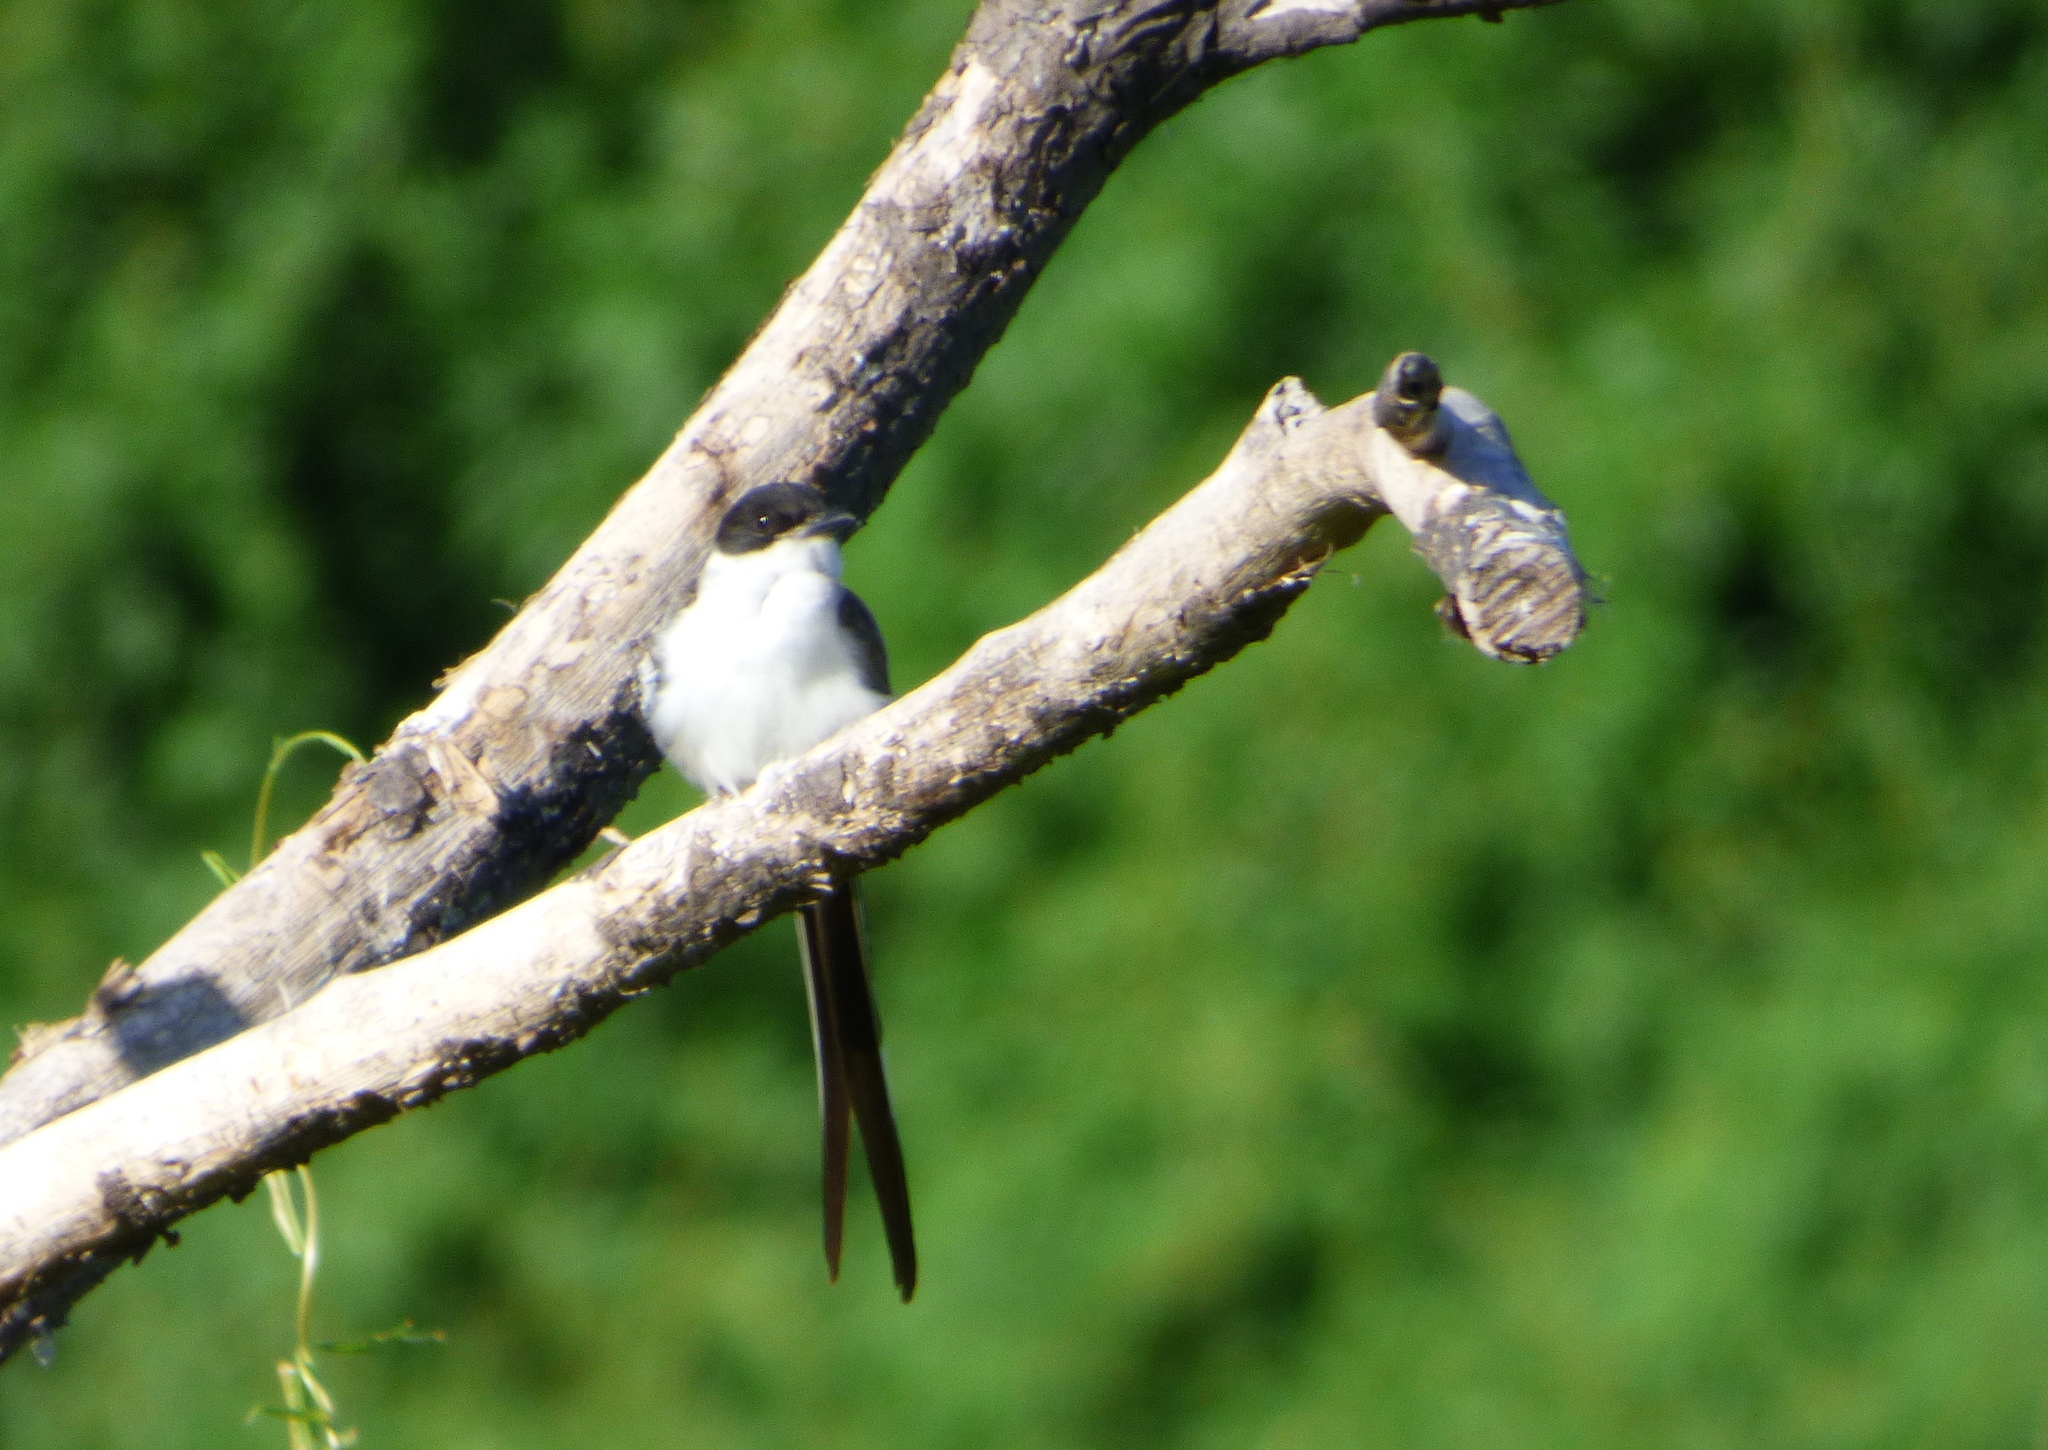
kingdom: Animalia
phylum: Chordata
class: Aves
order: Passeriformes
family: Tyrannidae
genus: Tyrannus
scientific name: Tyrannus savana
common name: Fork-tailed flycatcher
